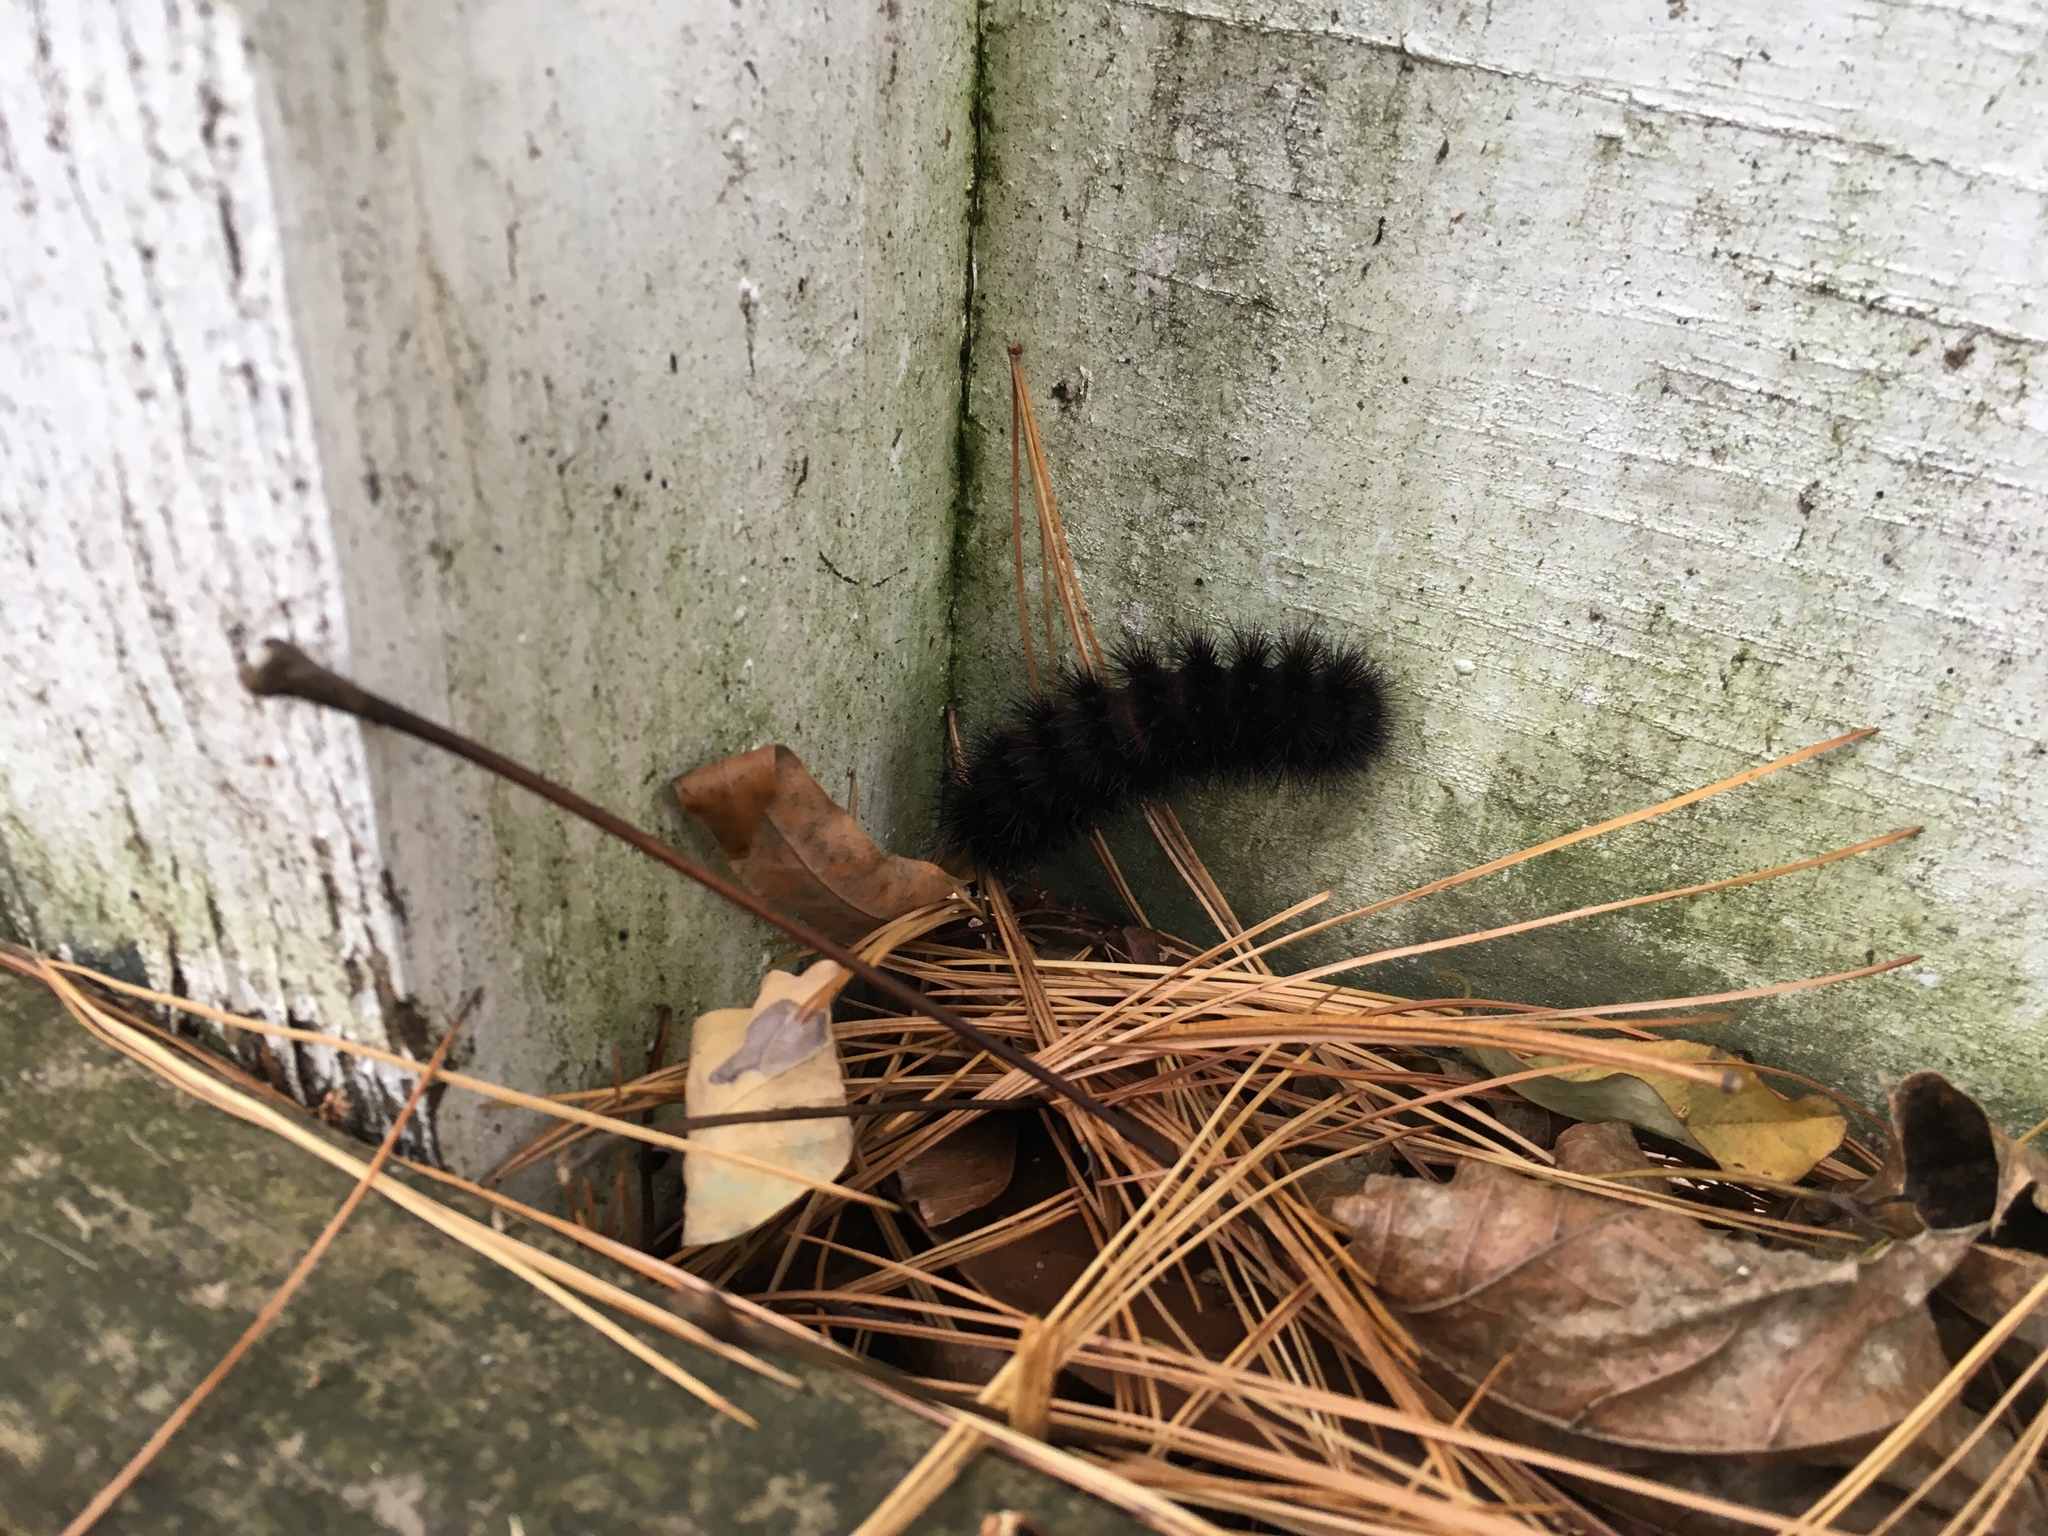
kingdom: Animalia
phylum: Arthropoda
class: Insecta
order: Lepidoptera
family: Erebidae
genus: Hypercompe
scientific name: Hypercompe scribonia
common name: Giant leopard moth
